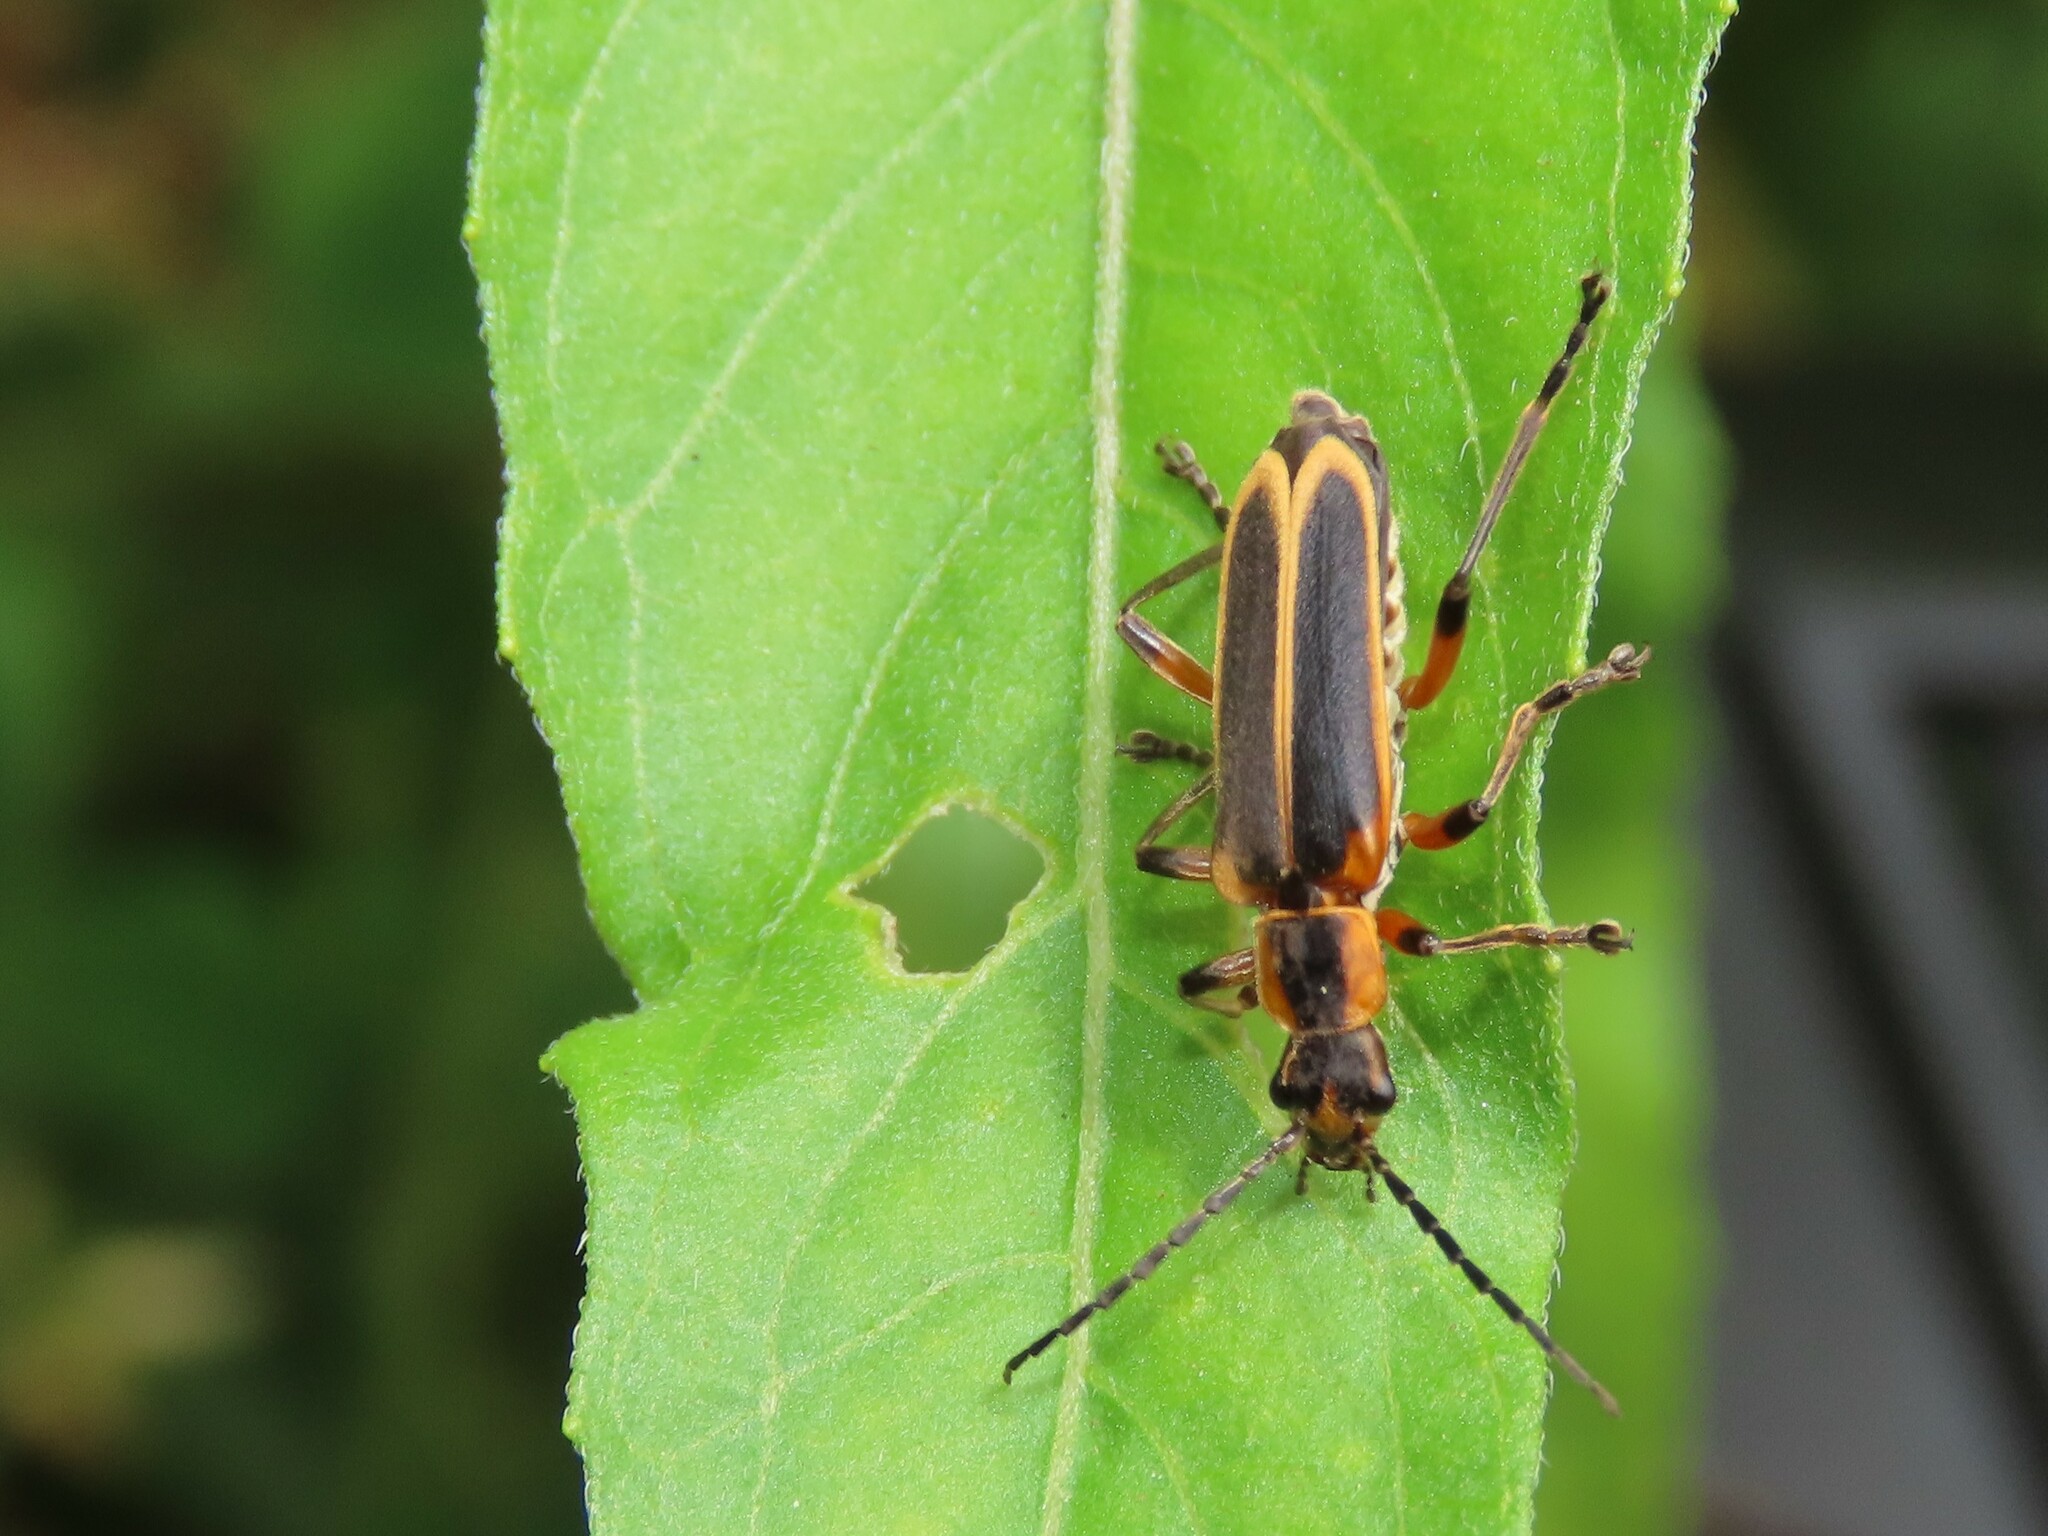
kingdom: Animalia
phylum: Arthropoda
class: Insecta
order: Coleoptera
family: Cantharidae
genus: Chauliognathus
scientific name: Chauliognathus marginatus
